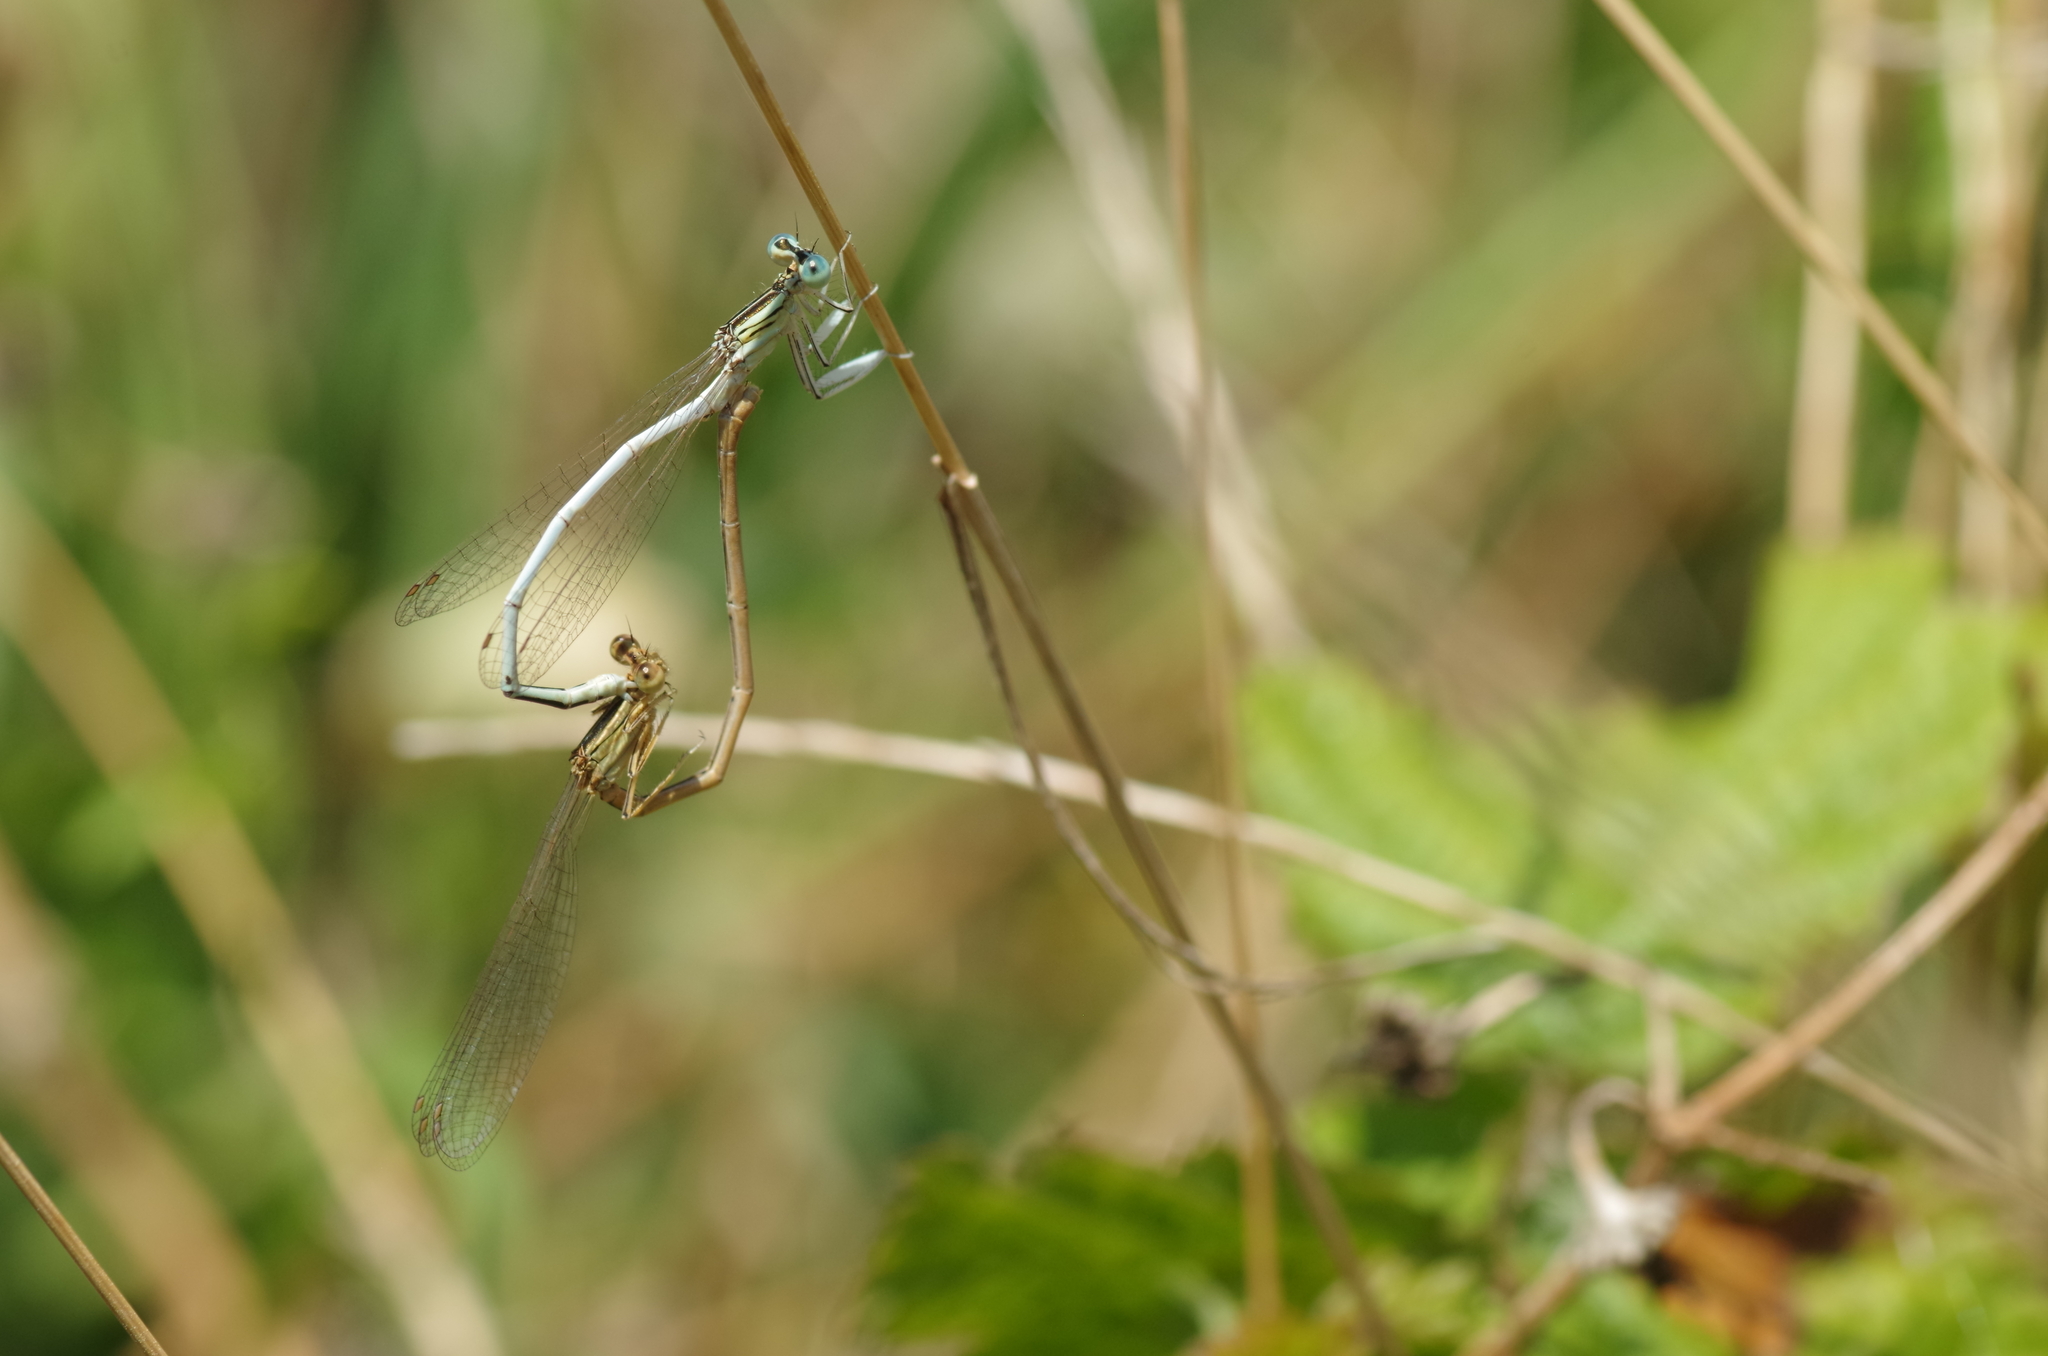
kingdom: Animalia
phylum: Arthropoda
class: Insecta
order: Odonata
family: Platycnemididae
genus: Platycnemis
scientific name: Platycnemis latipes
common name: White featherleg
